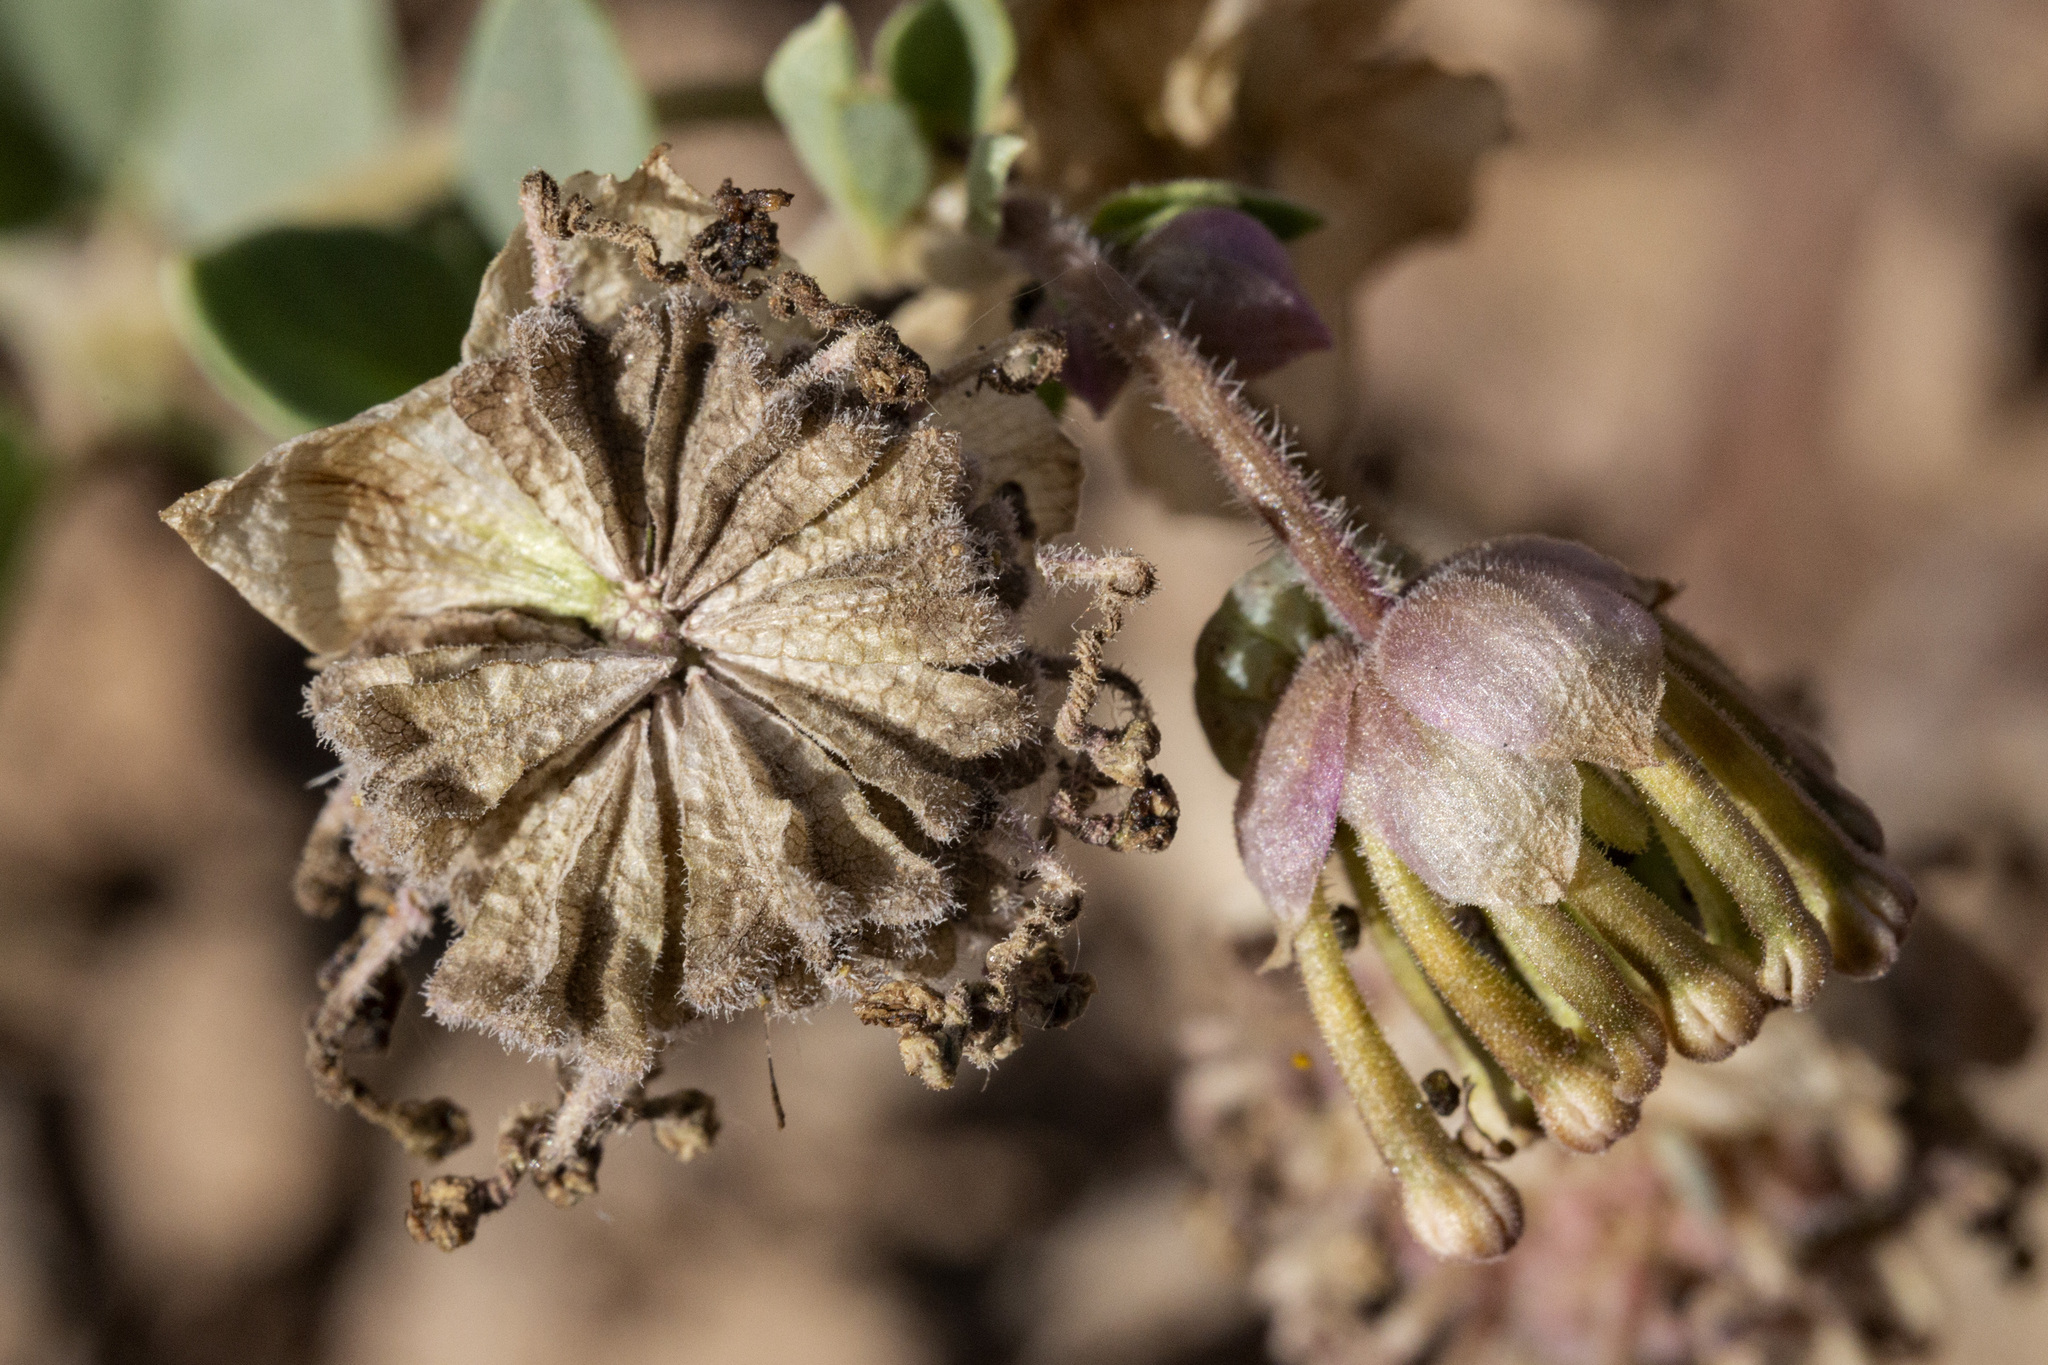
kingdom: Plantae
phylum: Tracheophyta
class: Magnoliopsida
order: Caryophyllales
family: Nyctaginaceae
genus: Abronia
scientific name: Abronia elliptica
